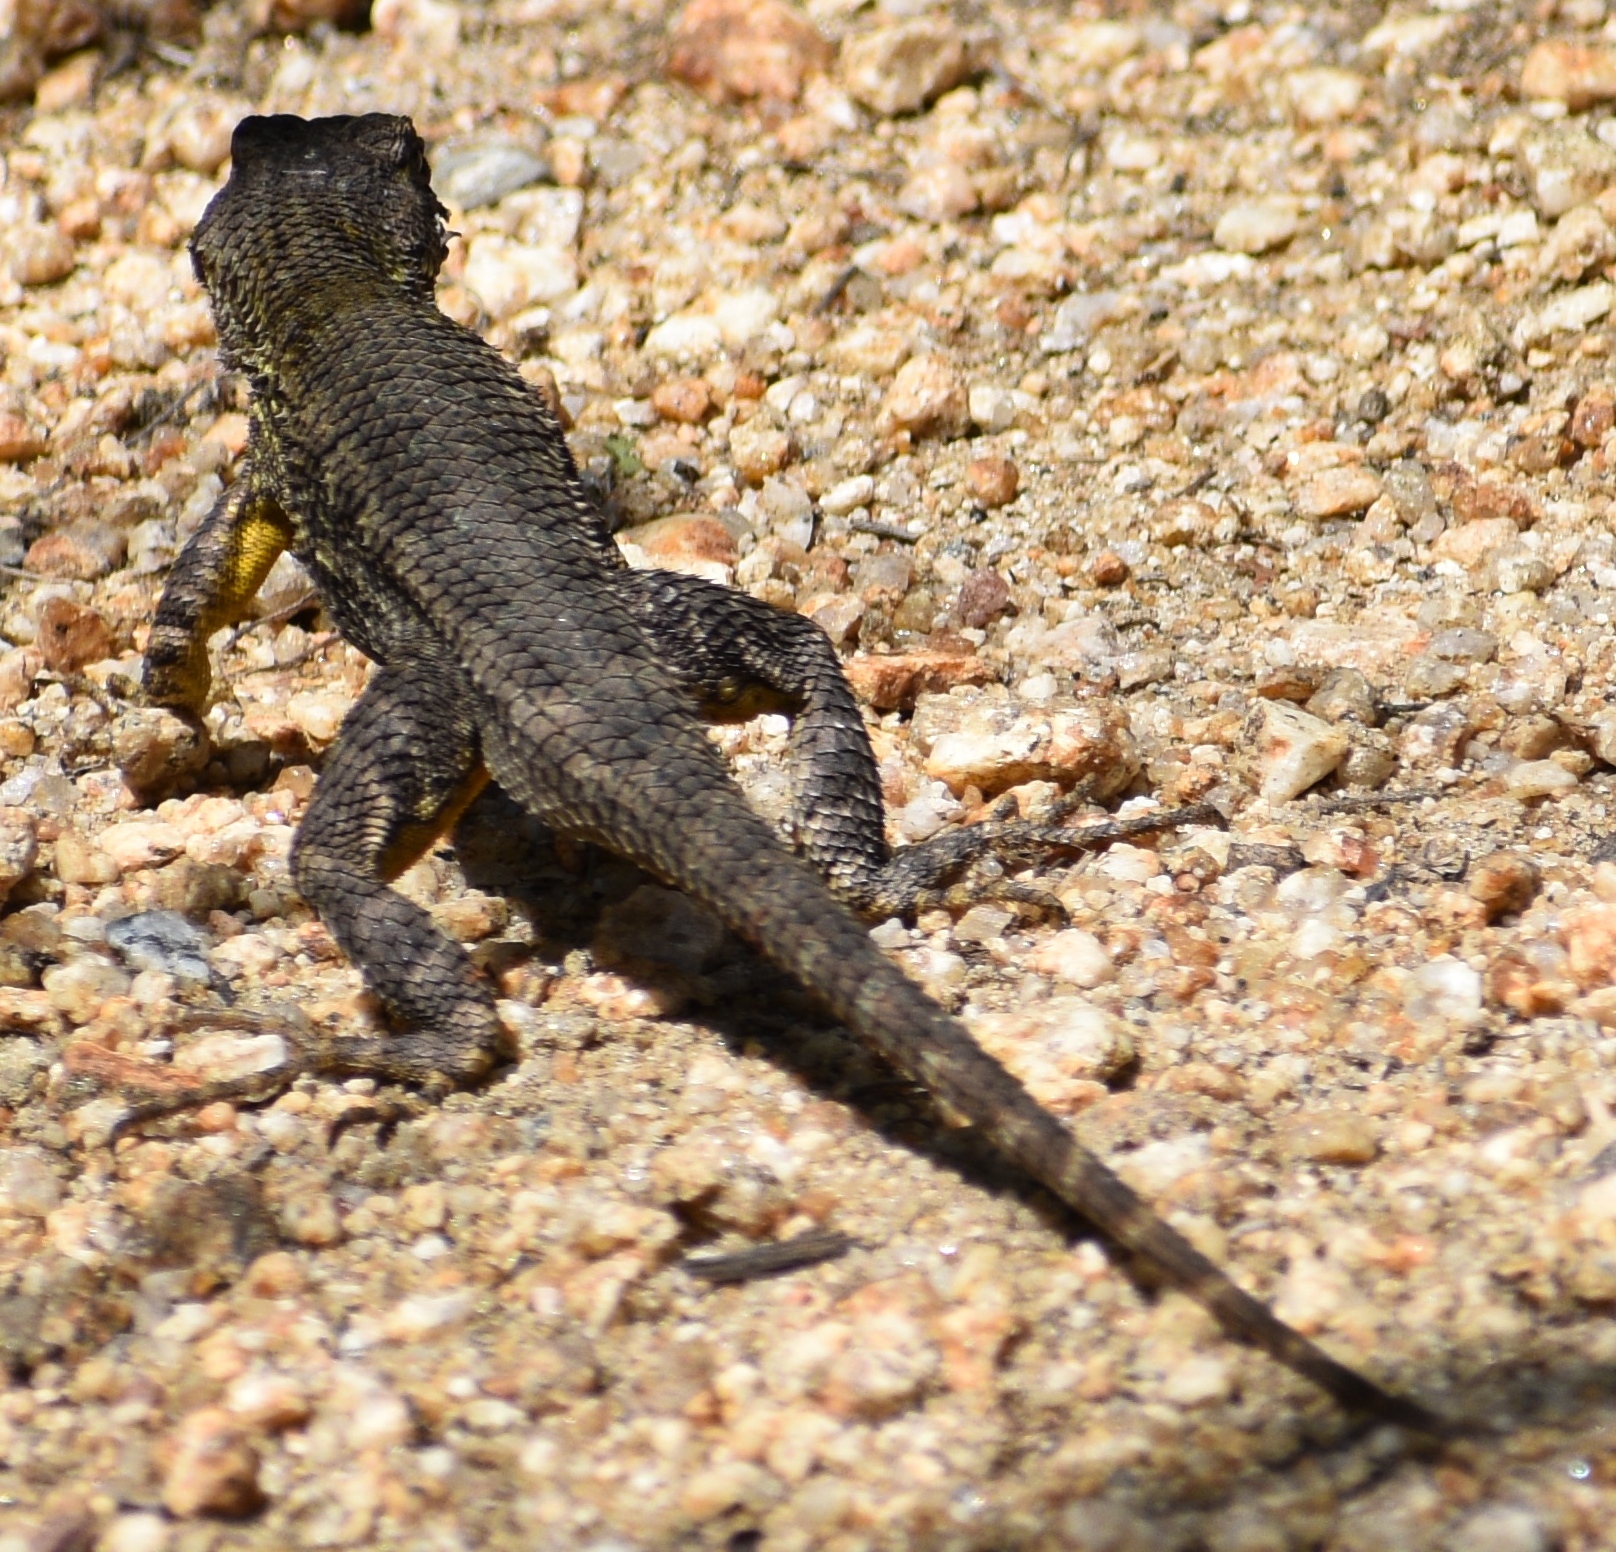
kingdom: Animalia
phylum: Chordata
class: Squamata
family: Phrynosomatidae
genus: Sceloporus
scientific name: Sceloporus occidentalis
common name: Western fence lizard
